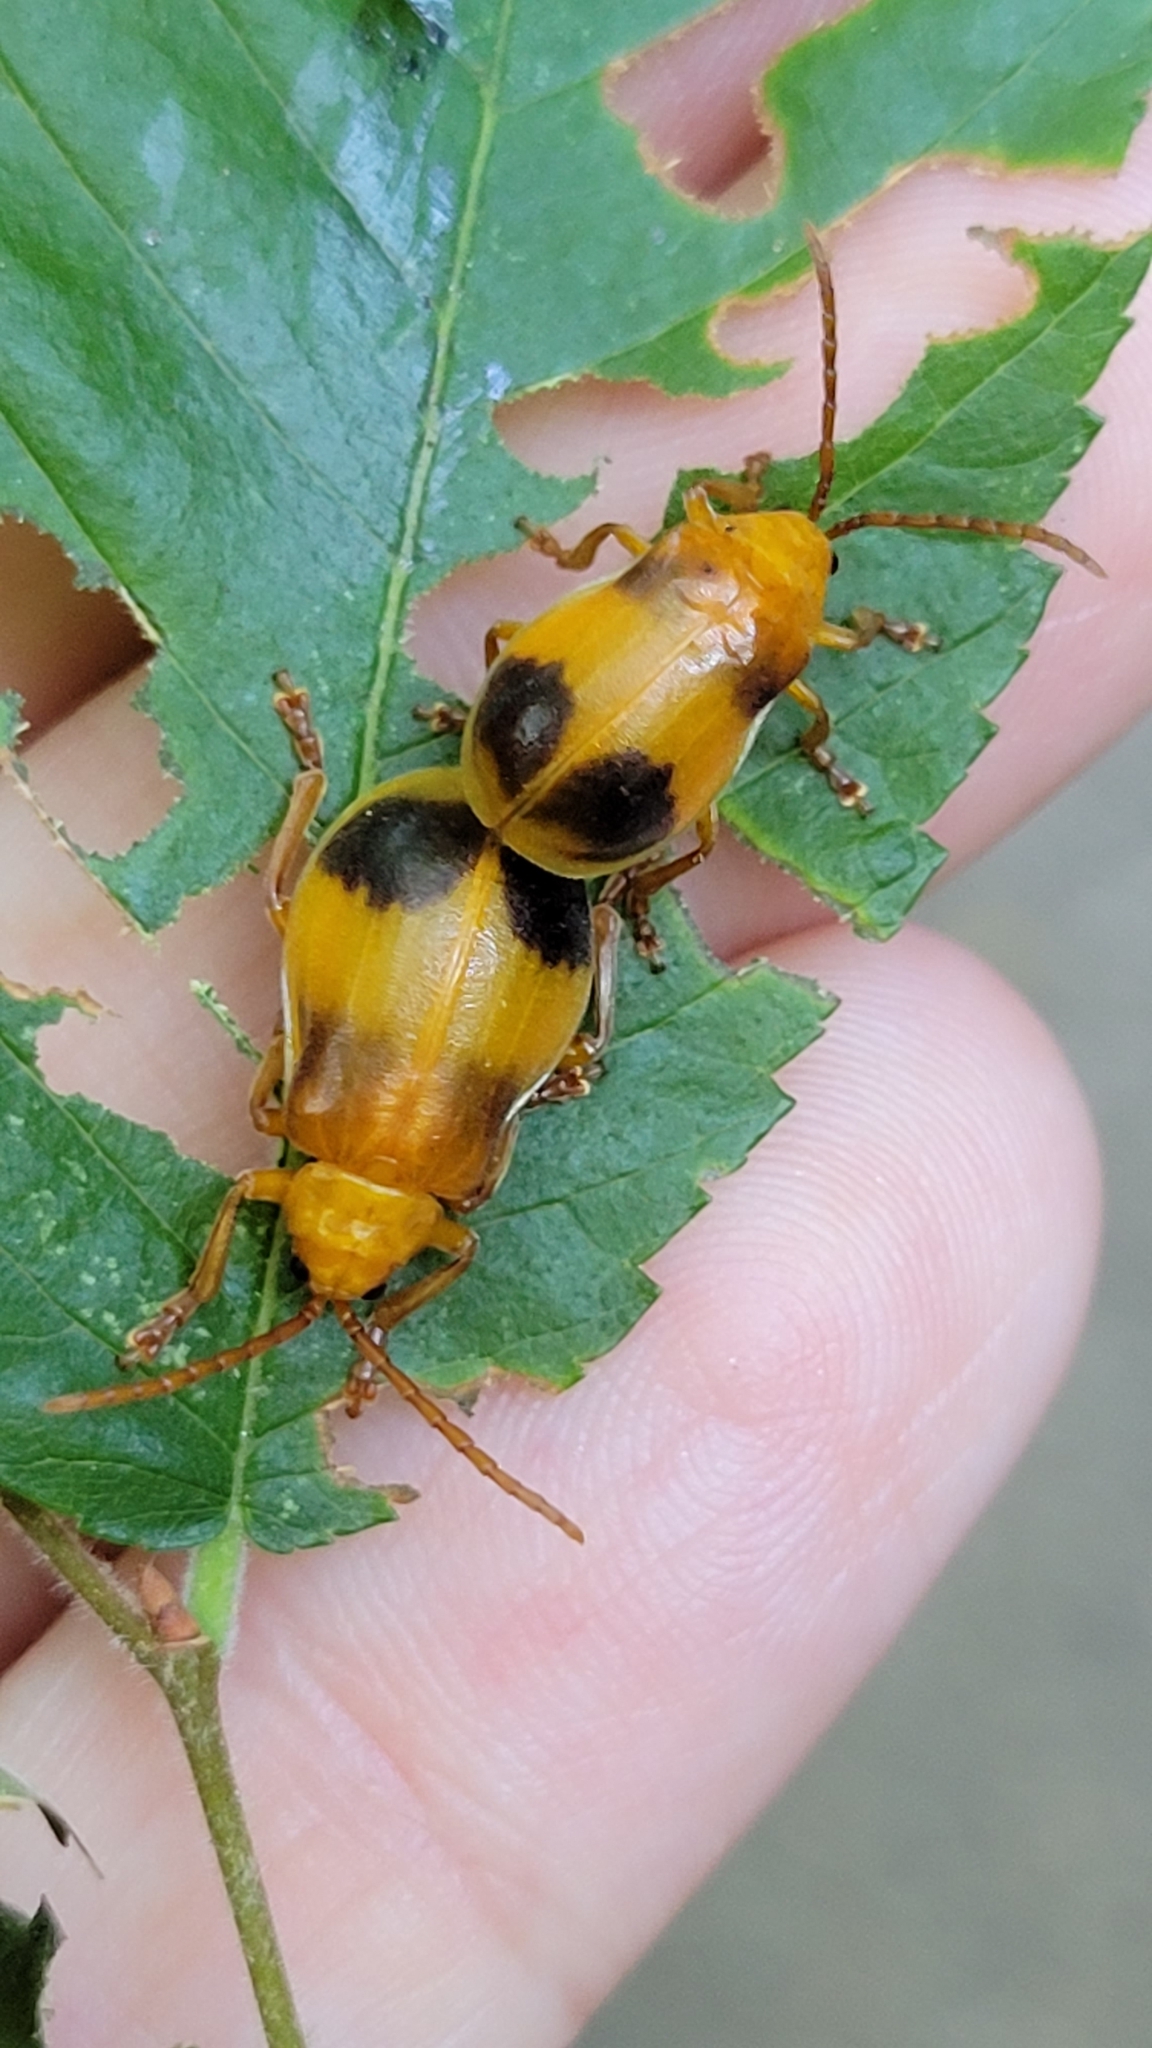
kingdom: Animalia
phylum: Arthropoda
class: Insecta
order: Coleoptera
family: Chrysomelidae
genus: Monocesta
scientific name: Monocesta coryli
